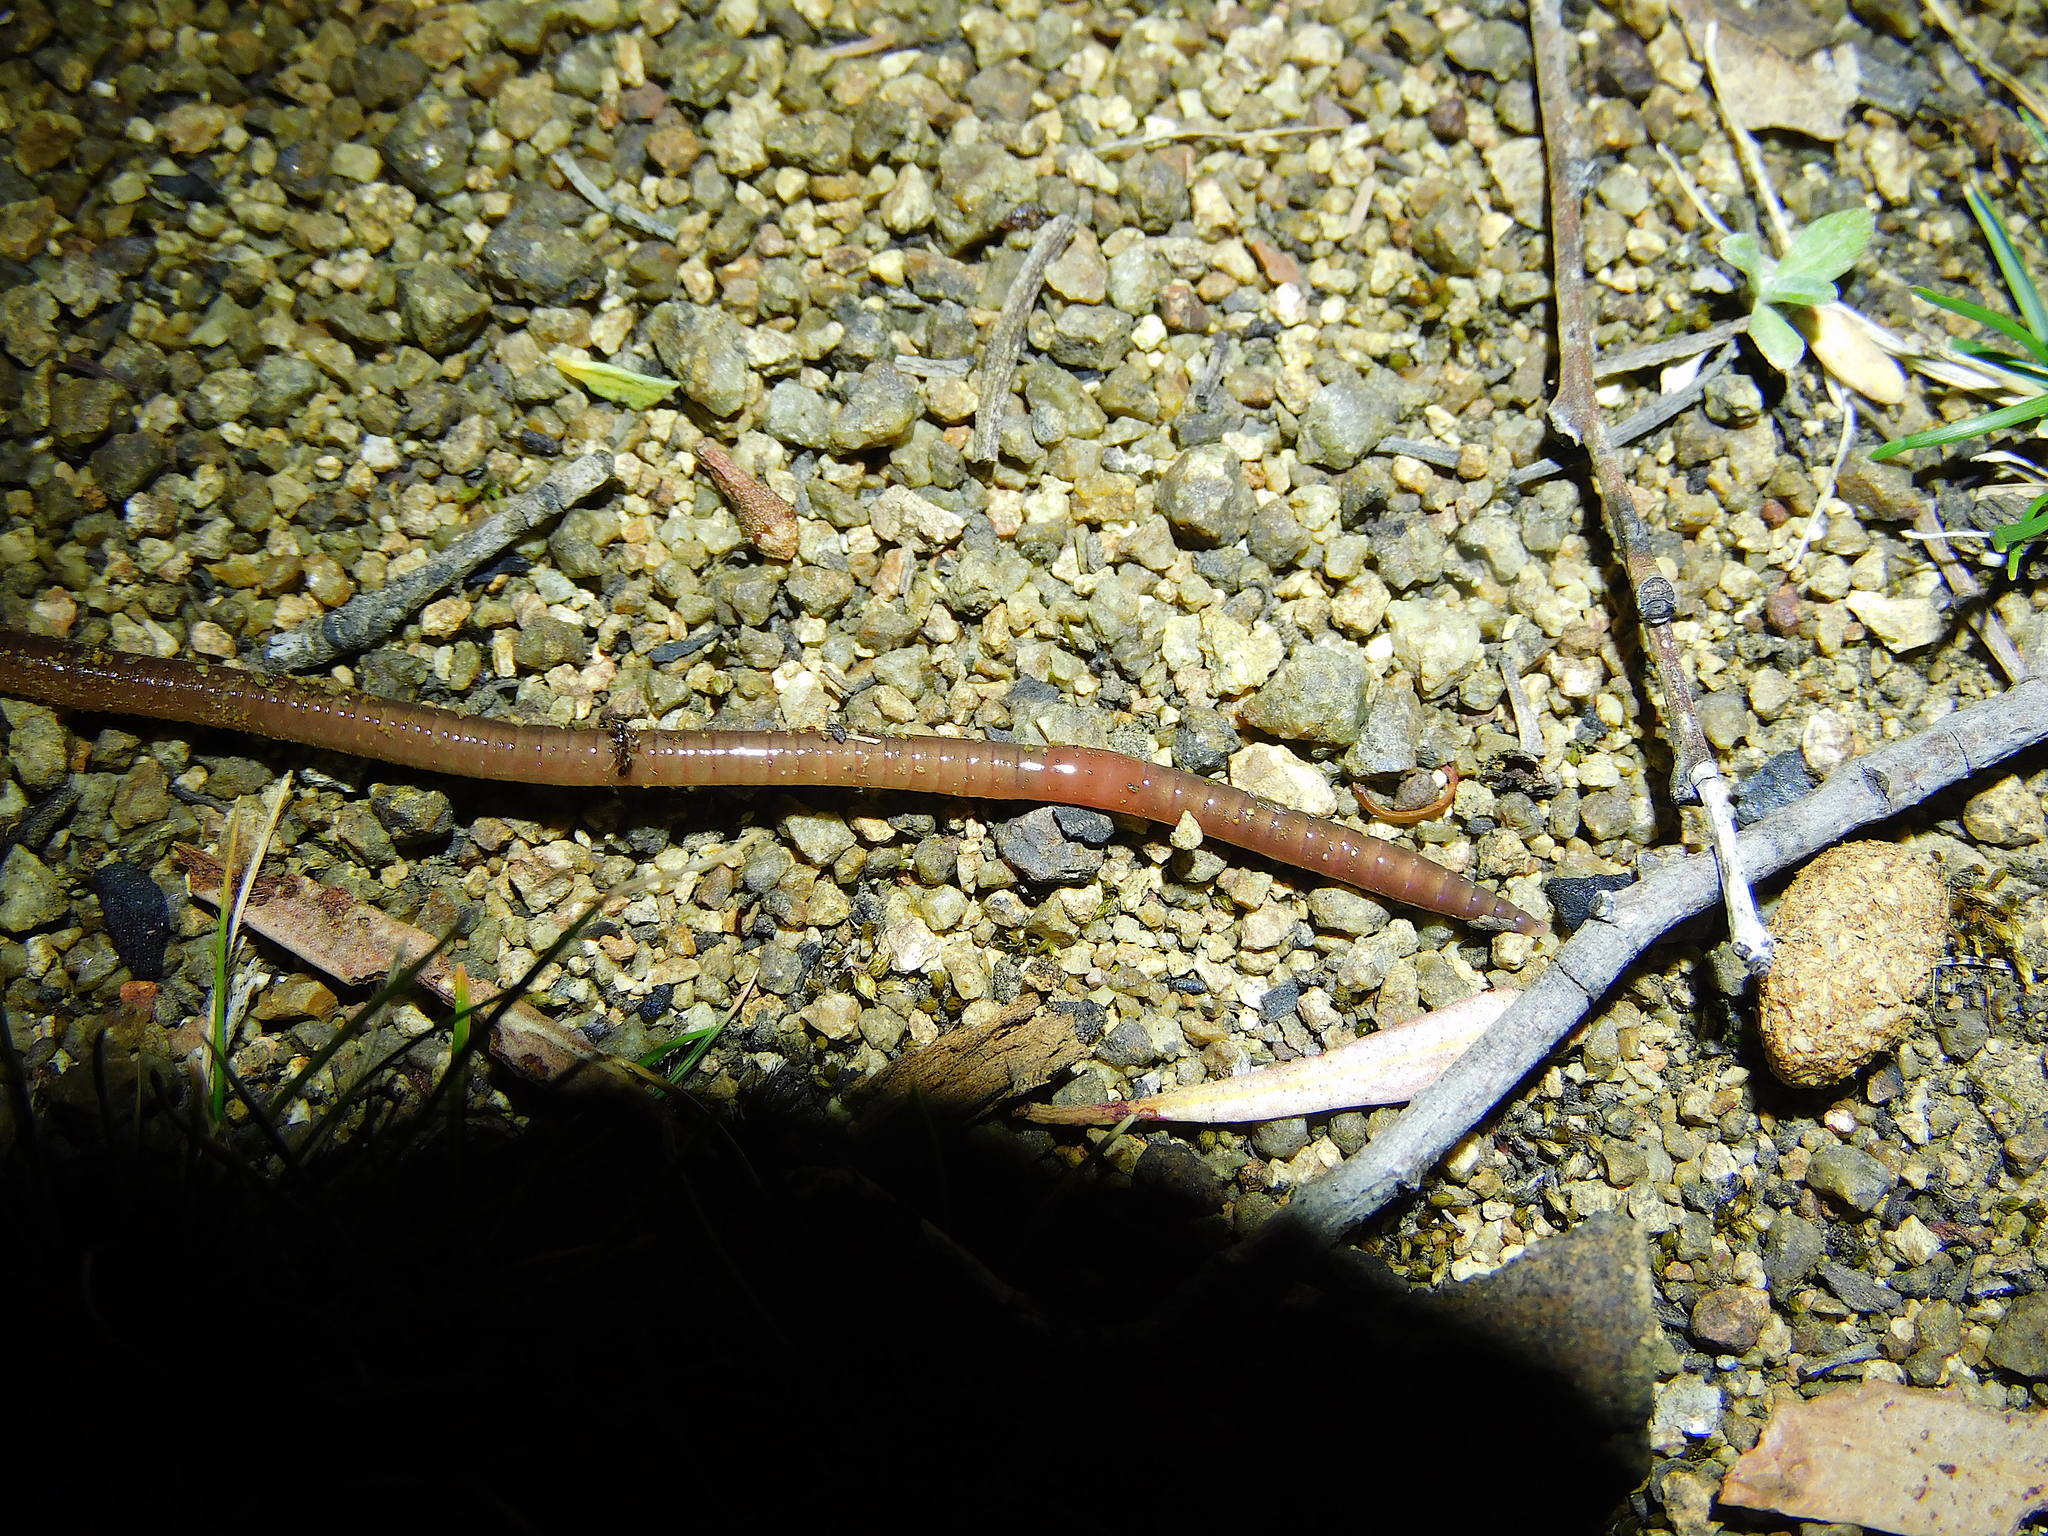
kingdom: Animalia
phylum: Annelida
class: Clitellata
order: Crassiclitellata
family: Megascolecidae
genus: Amynthas
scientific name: Amynthas corticis
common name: Japanese jumper worm
